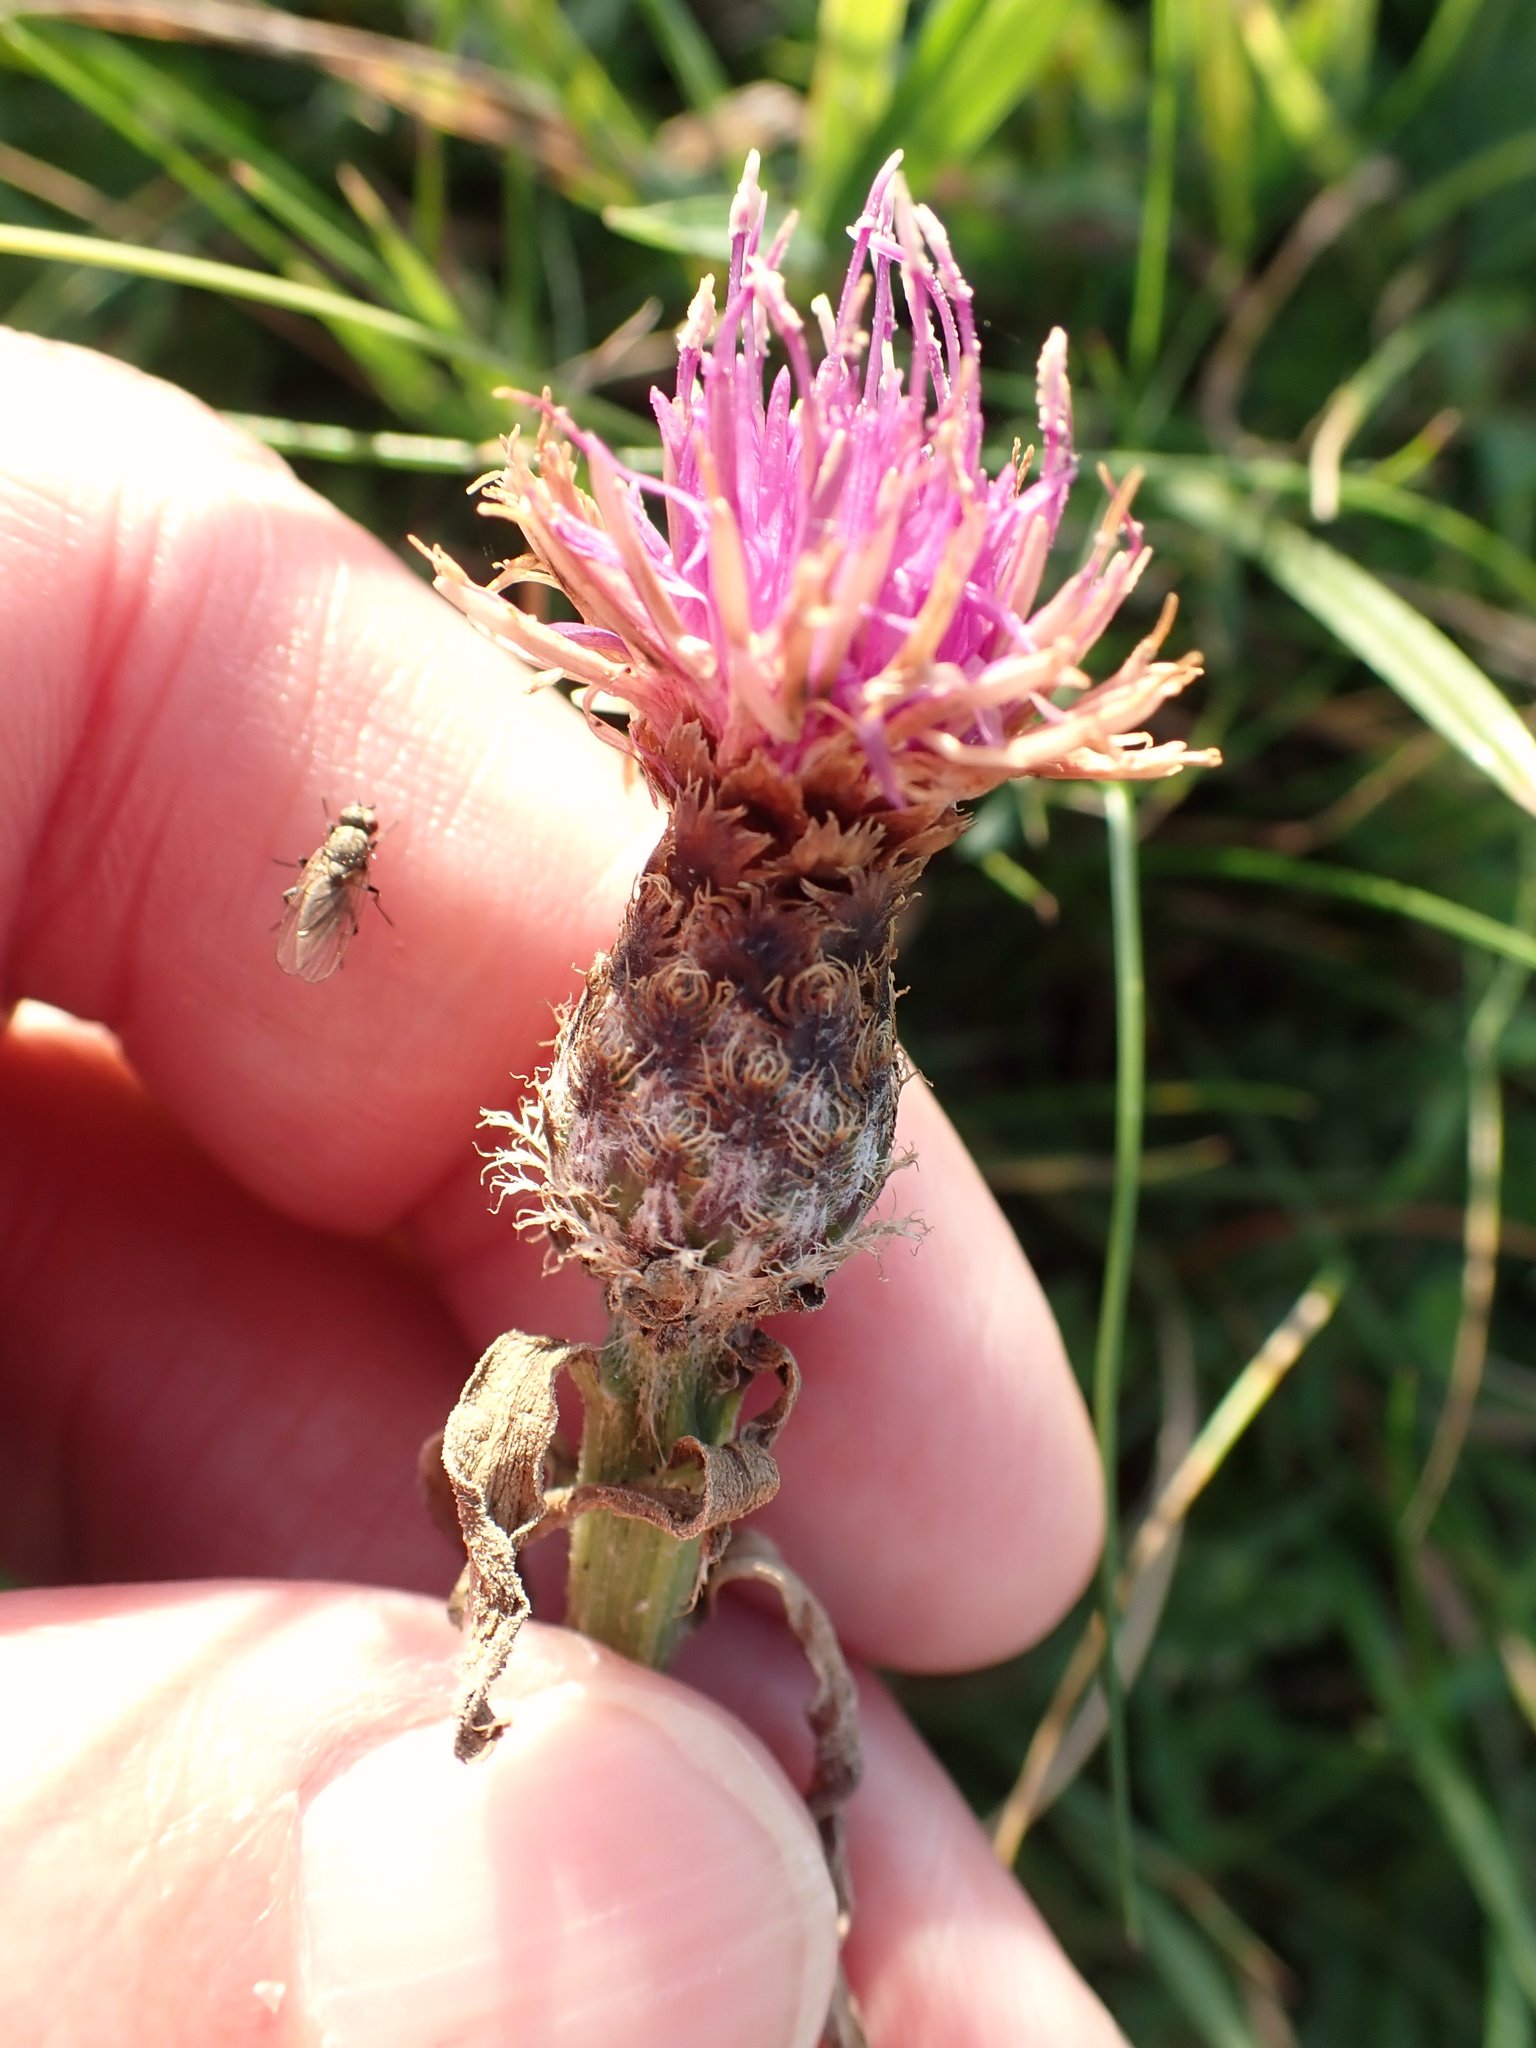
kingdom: Plantae
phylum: Tracheophyta
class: Magnoliopsida
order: Asterales
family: Asteraceae
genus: Centaurea
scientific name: Centaurea nigra
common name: Lesser knapweed
